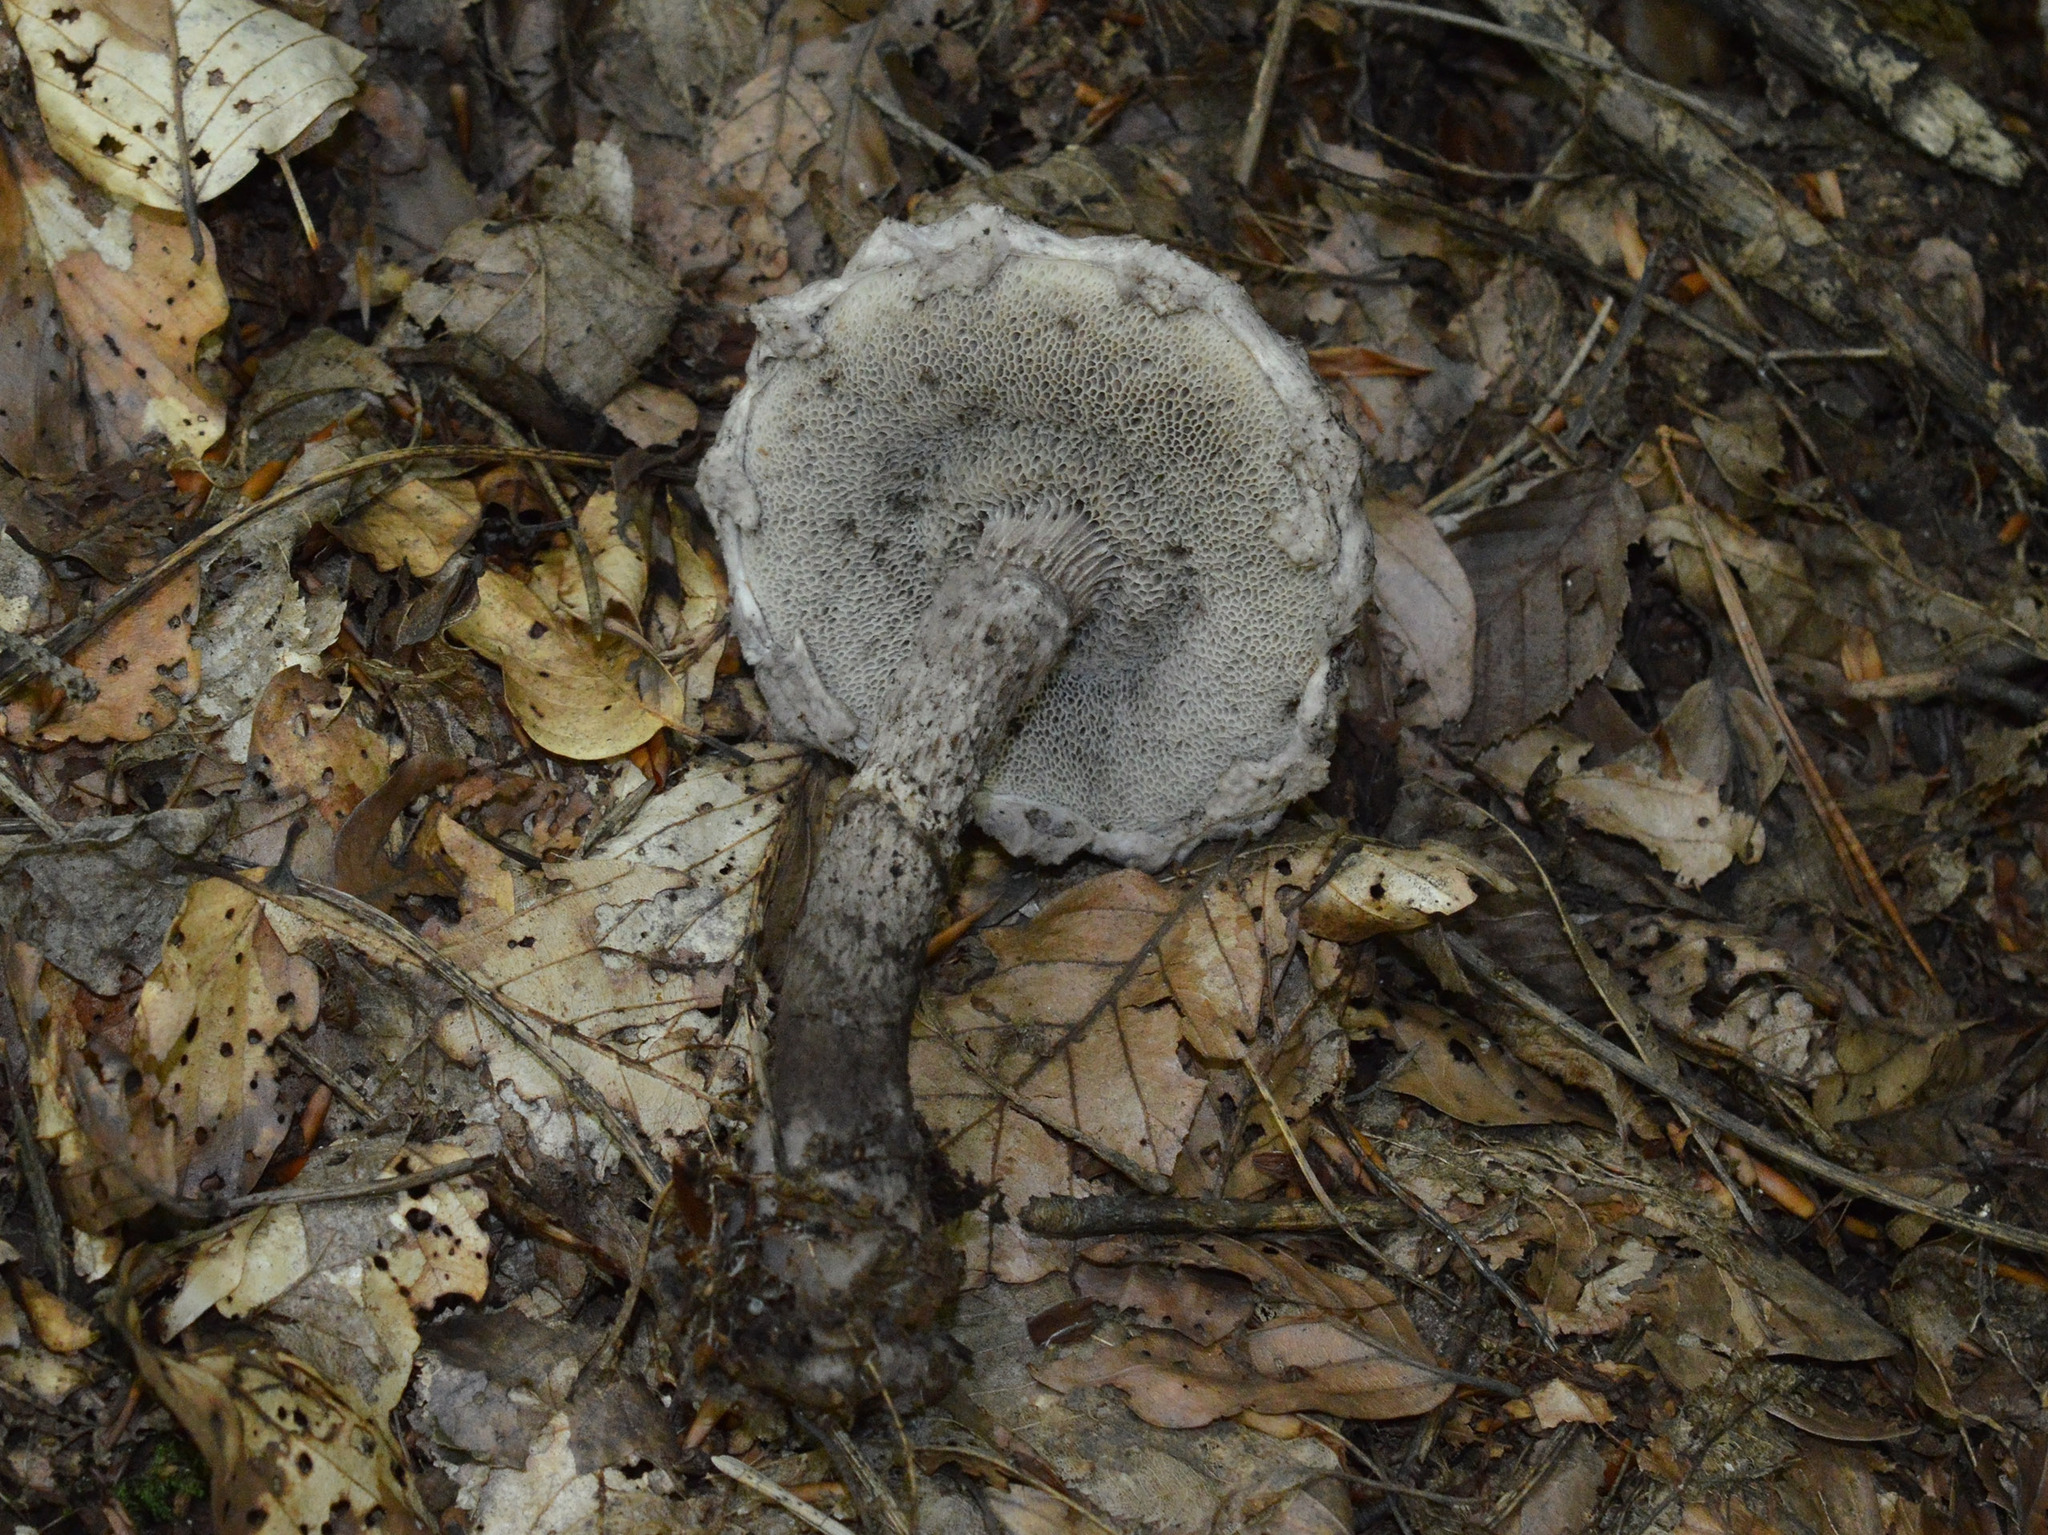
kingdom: Fungi
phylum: Basidiomycota
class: Agaricomycetes
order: Boletales
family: Boletaceae
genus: Strobilomyces
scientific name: Strobilomyces strobilaceus
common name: Old man of the woods
